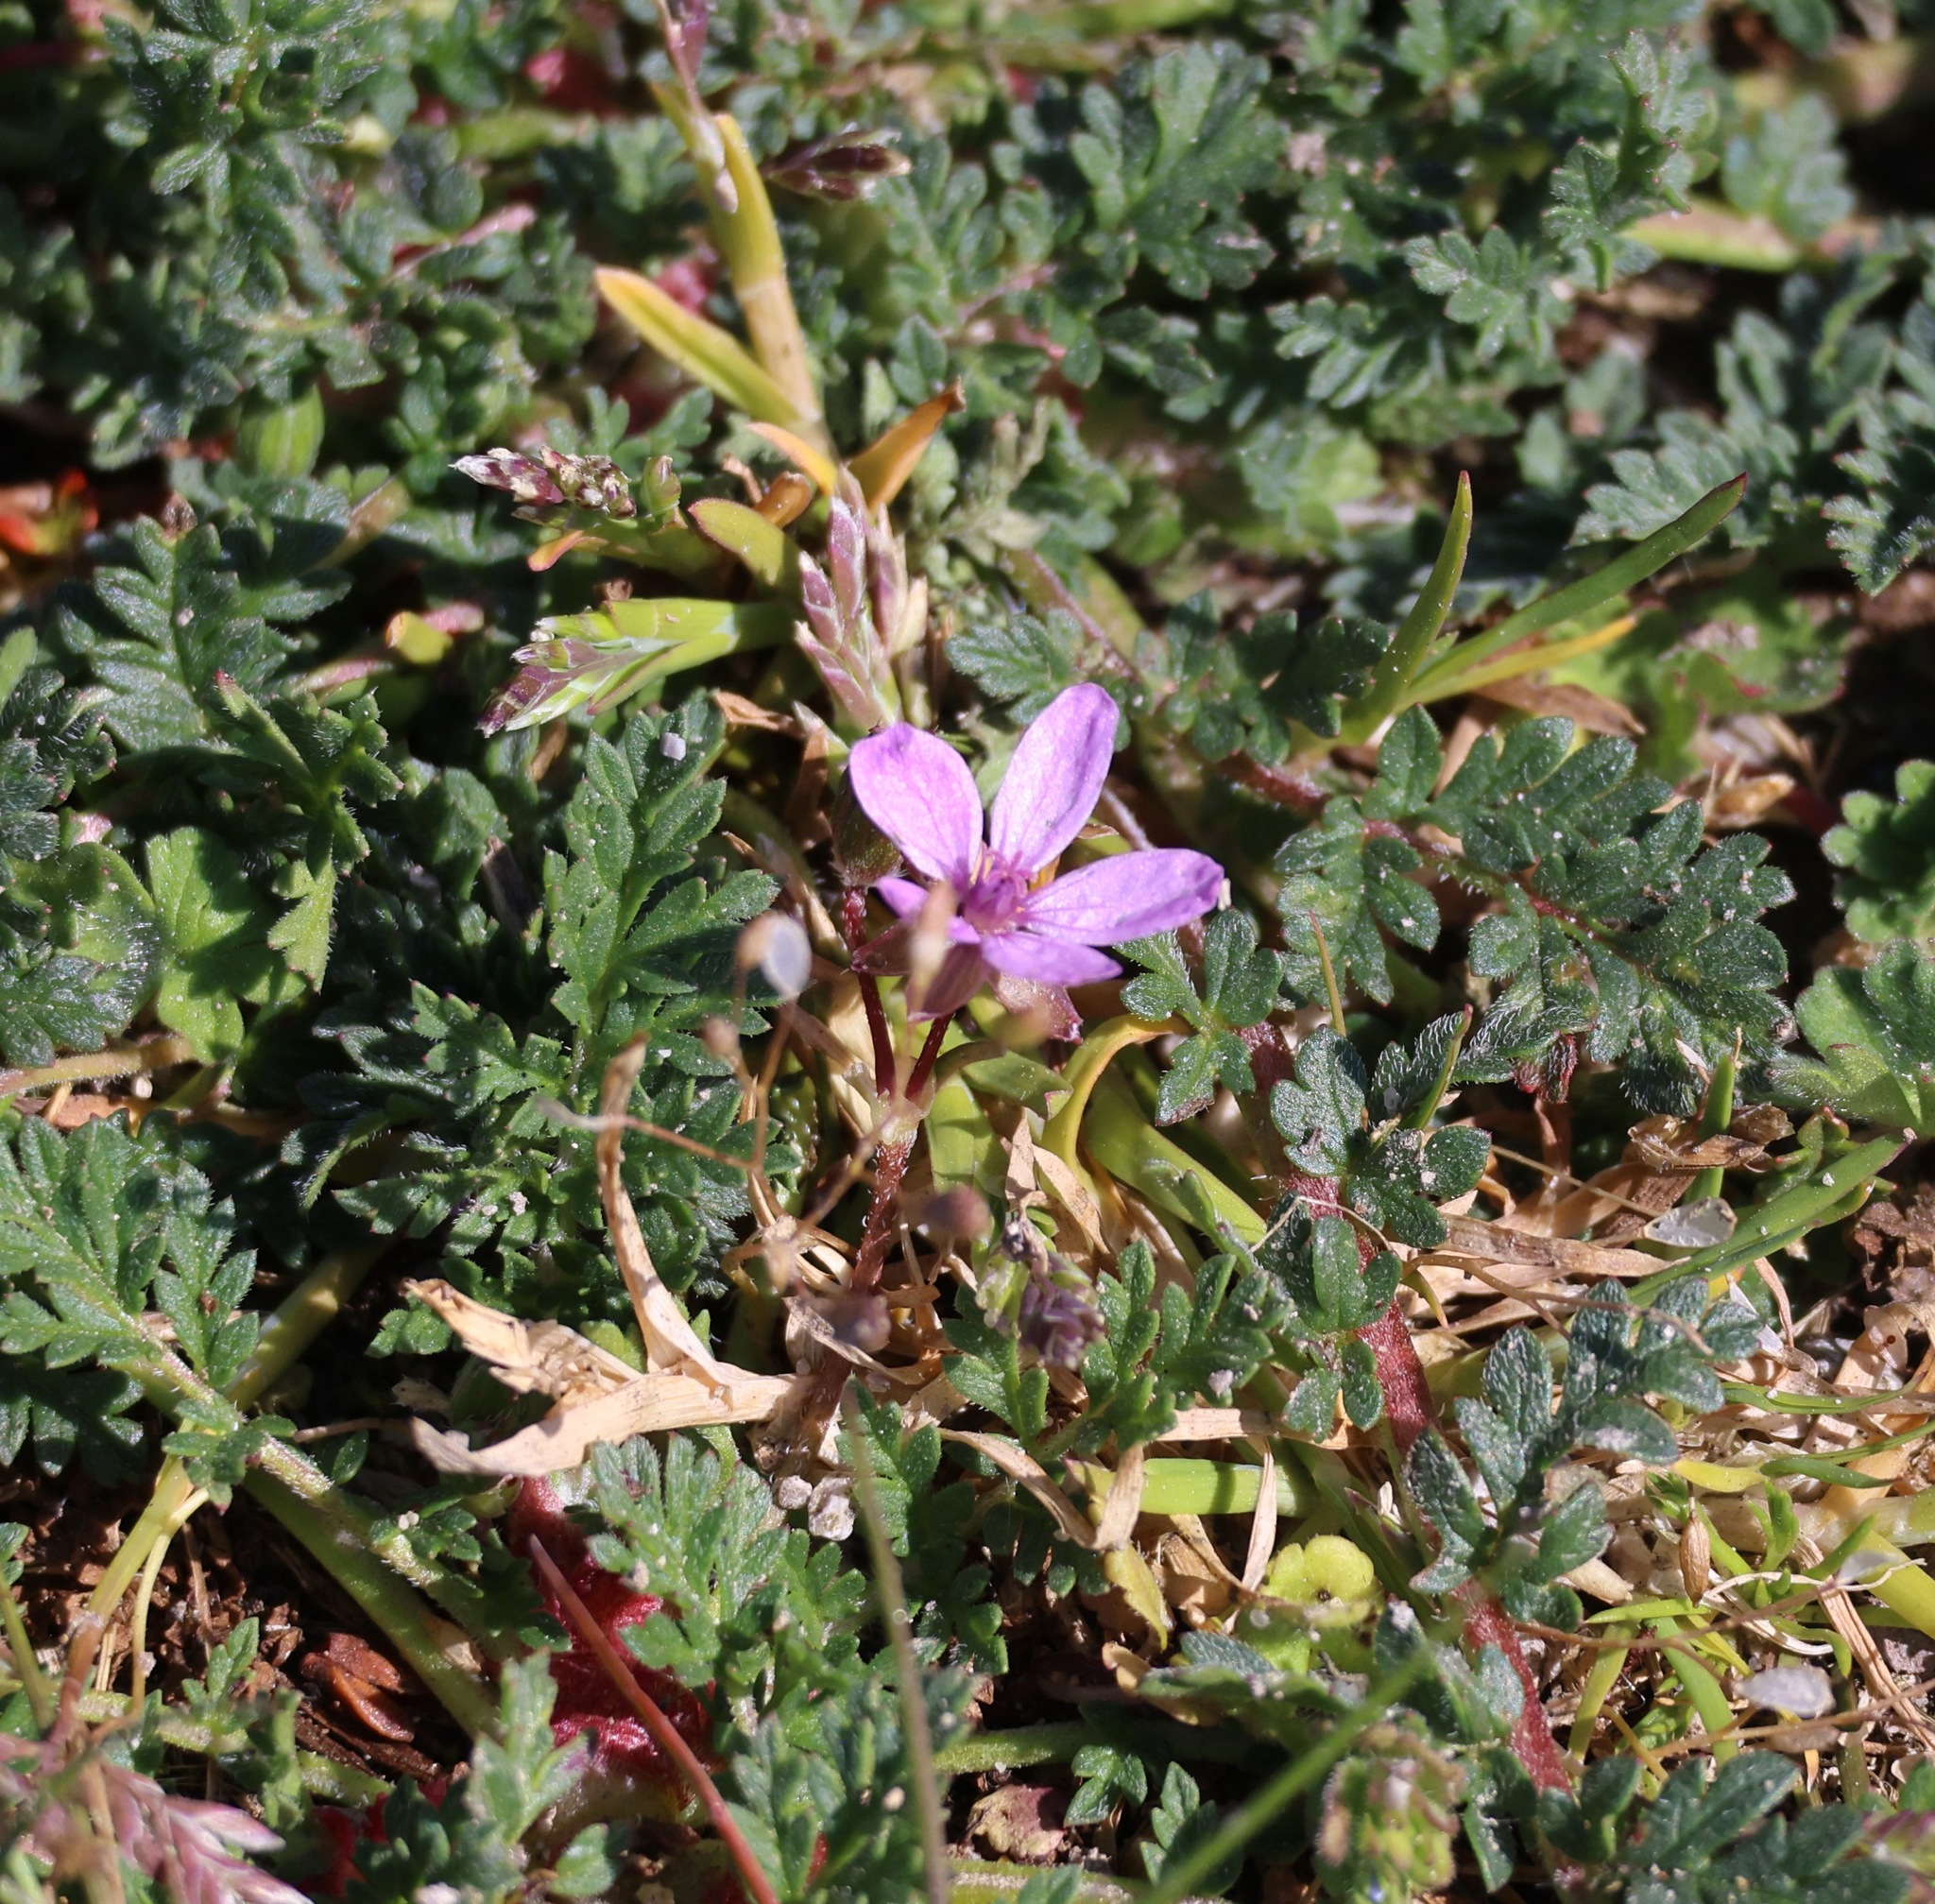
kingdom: Plantae
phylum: Tracheophyta
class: Magnoliopsida
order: Geraniales
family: Geraniaceae
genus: Erodium
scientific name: Erodium cicutarium
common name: Common stork's-bill
